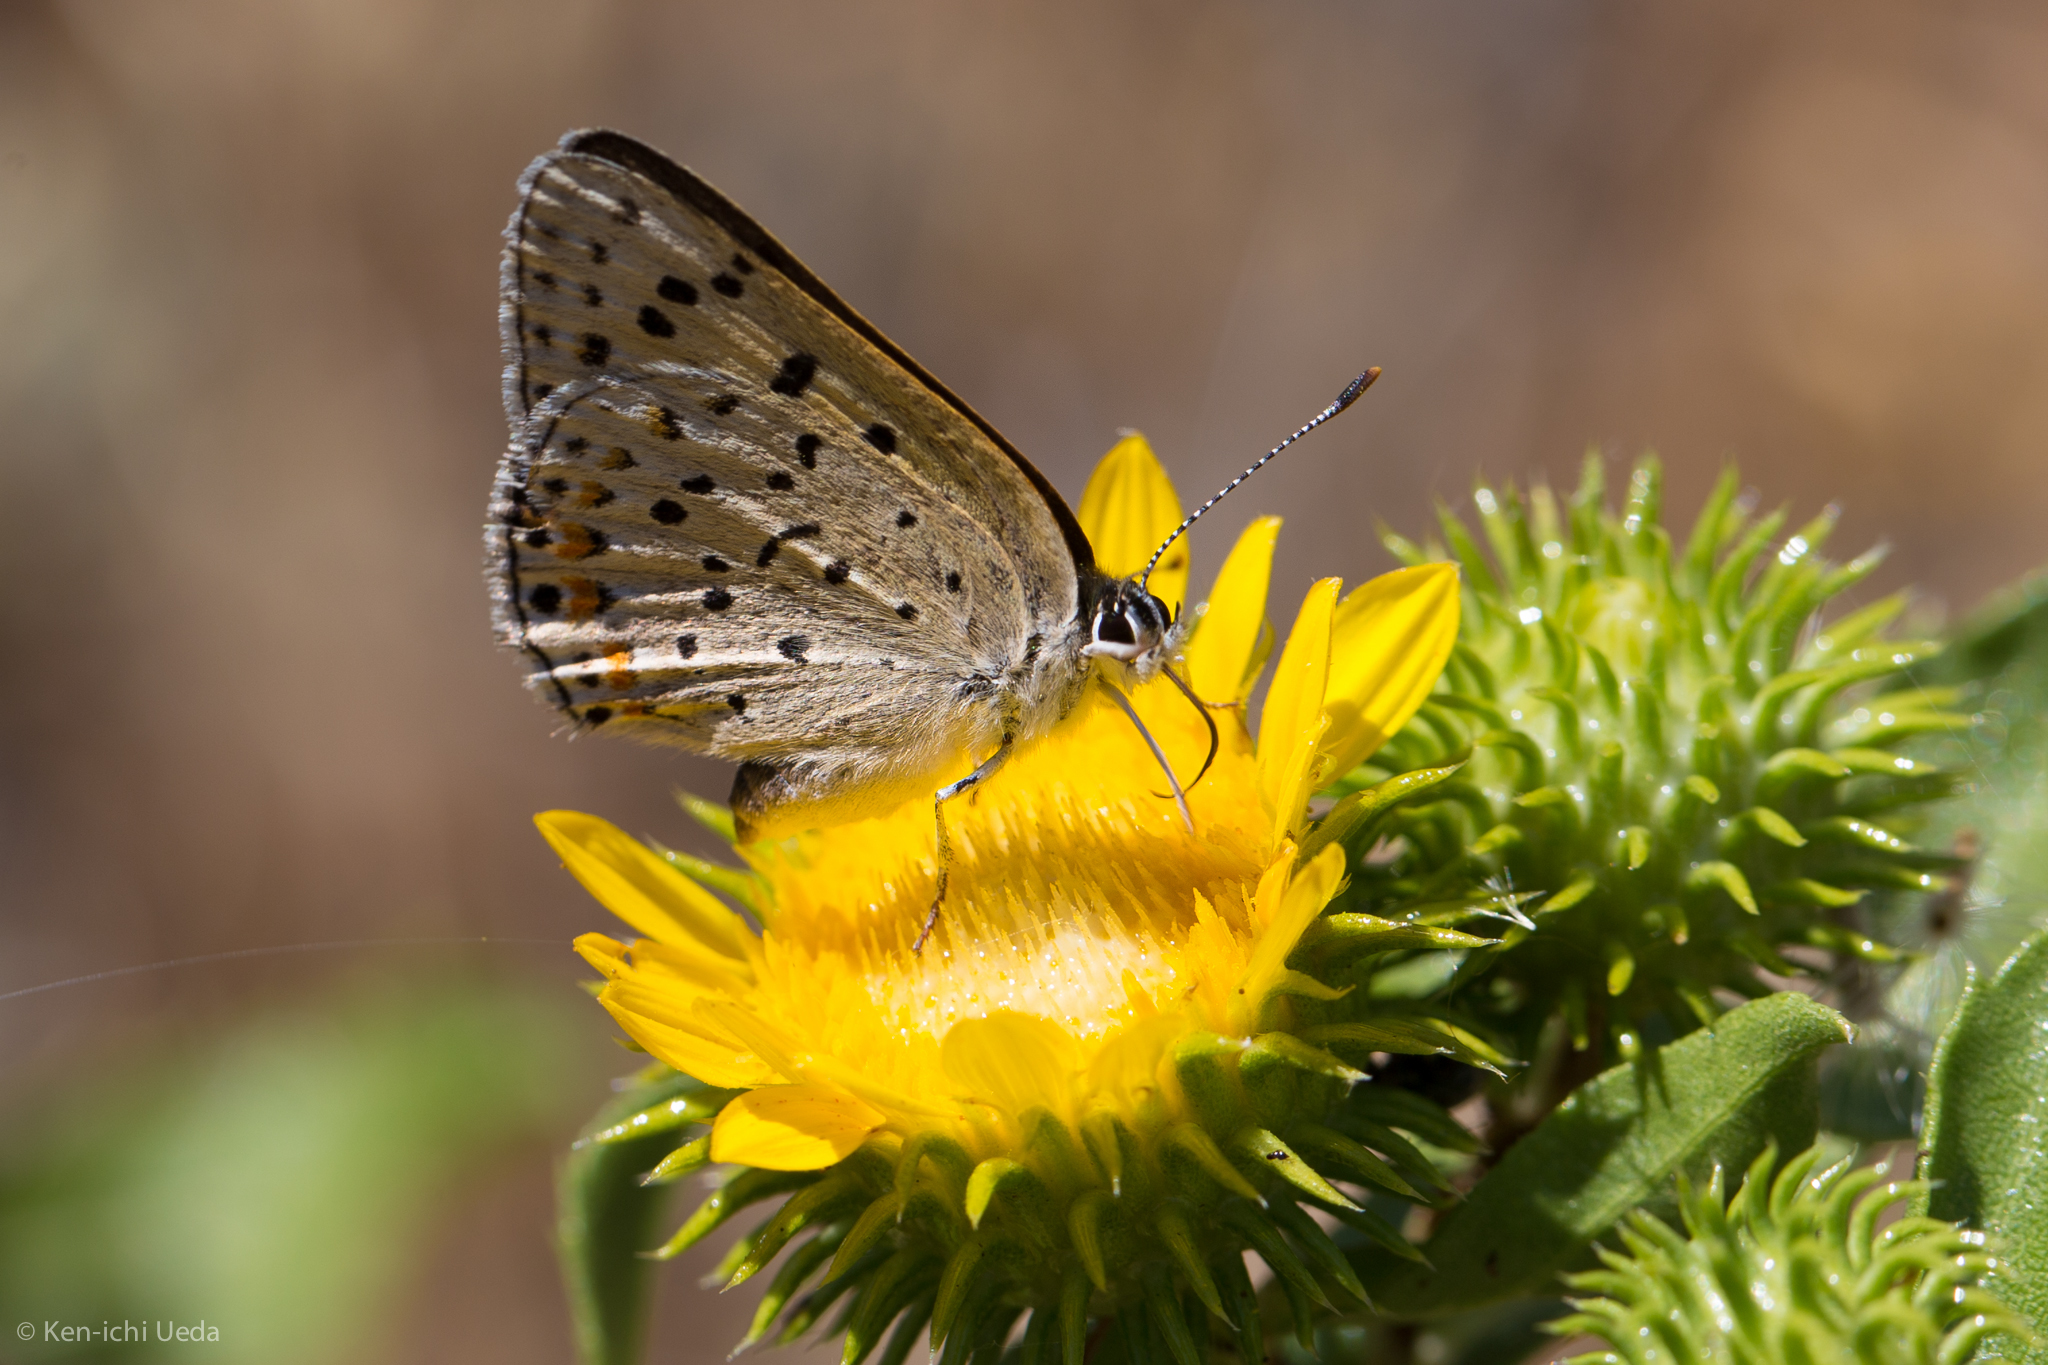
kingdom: Animalia
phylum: Arthropoda
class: Insecta
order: Lepidoptera
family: Lycaenidae
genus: Tharsalea
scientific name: Tharsalea gorgon
